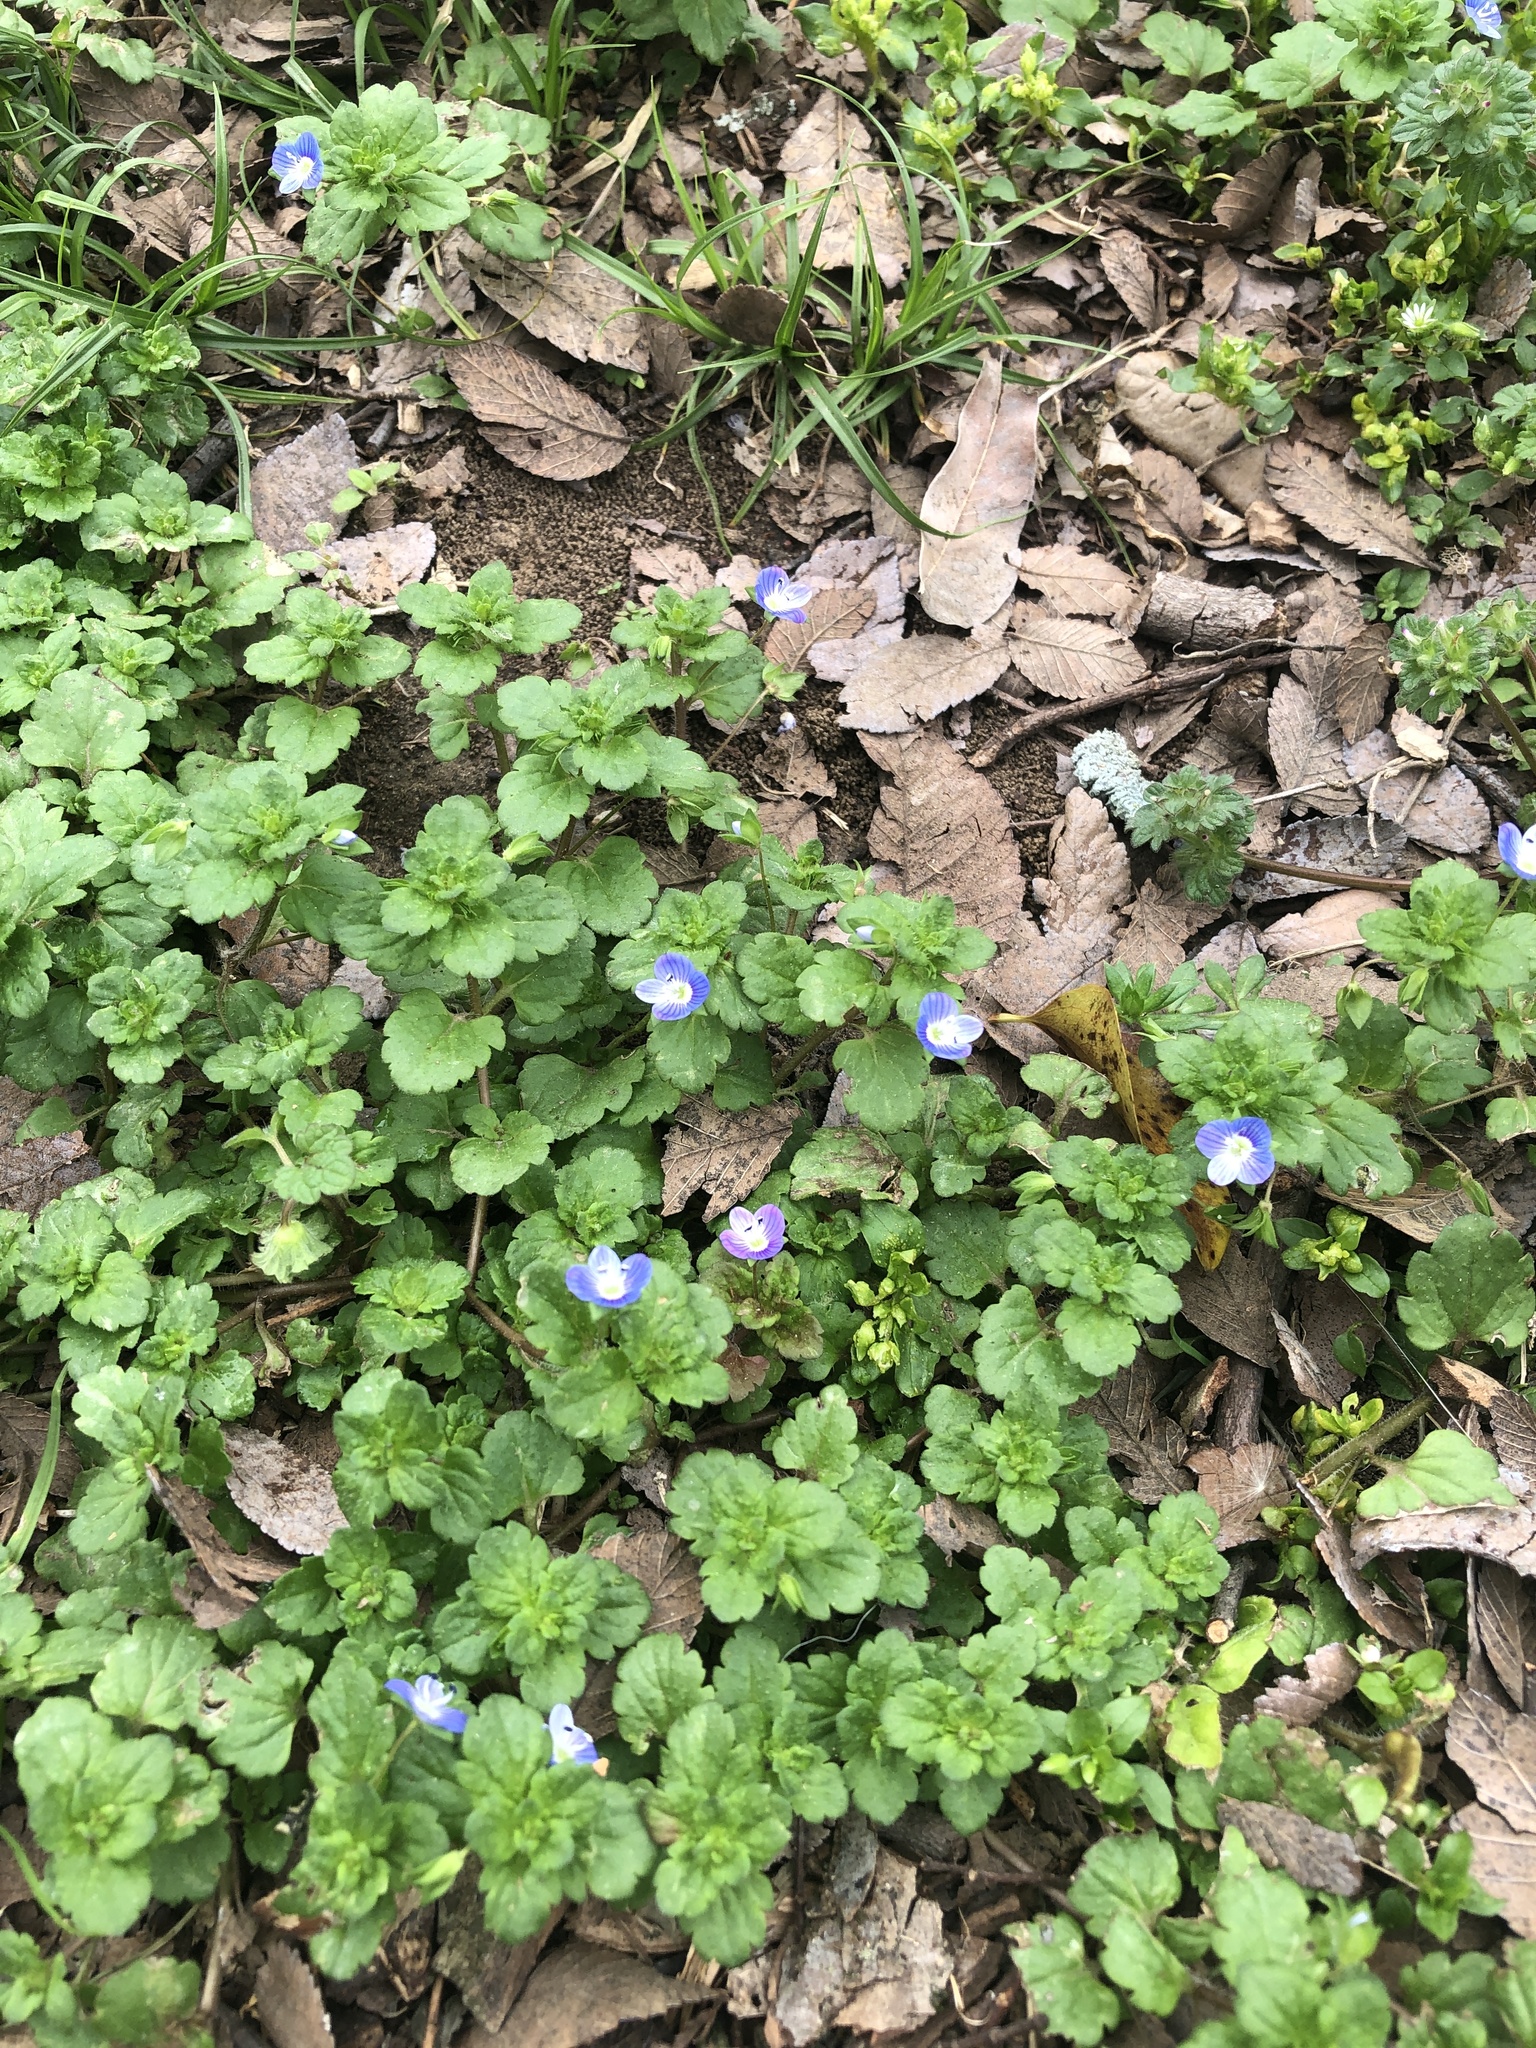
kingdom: Plantae
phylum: Tracheophyta
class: Magnoliopsida
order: Lamiales
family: Plantaginaceae
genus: Veronica
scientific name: Veronica persica
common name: Common field-speedwell
